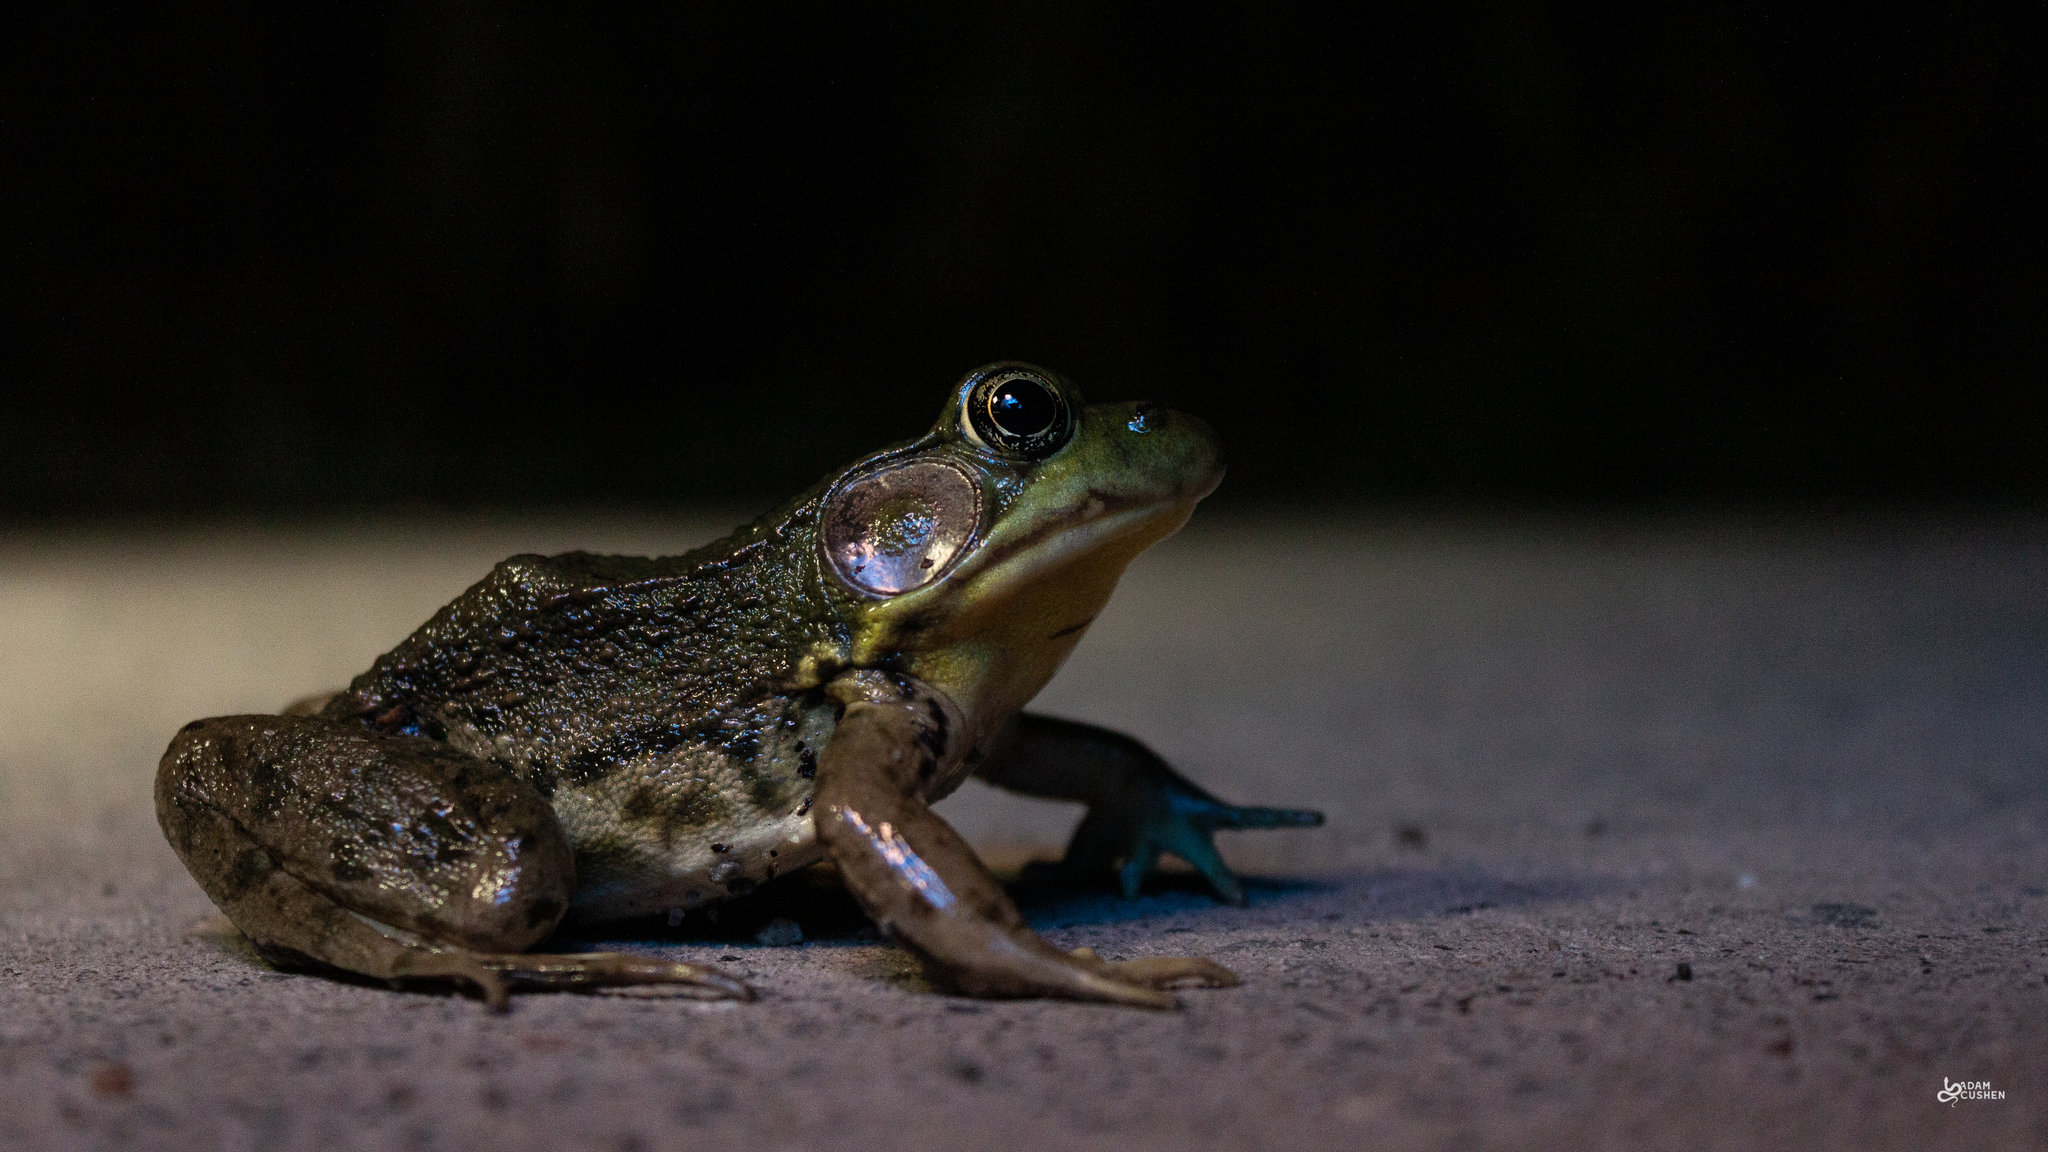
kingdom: Animalia
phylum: Chordata
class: Amphibia
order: Anura
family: Ranidae
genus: Lithobates
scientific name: Lithobates clamitans
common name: Green frog
